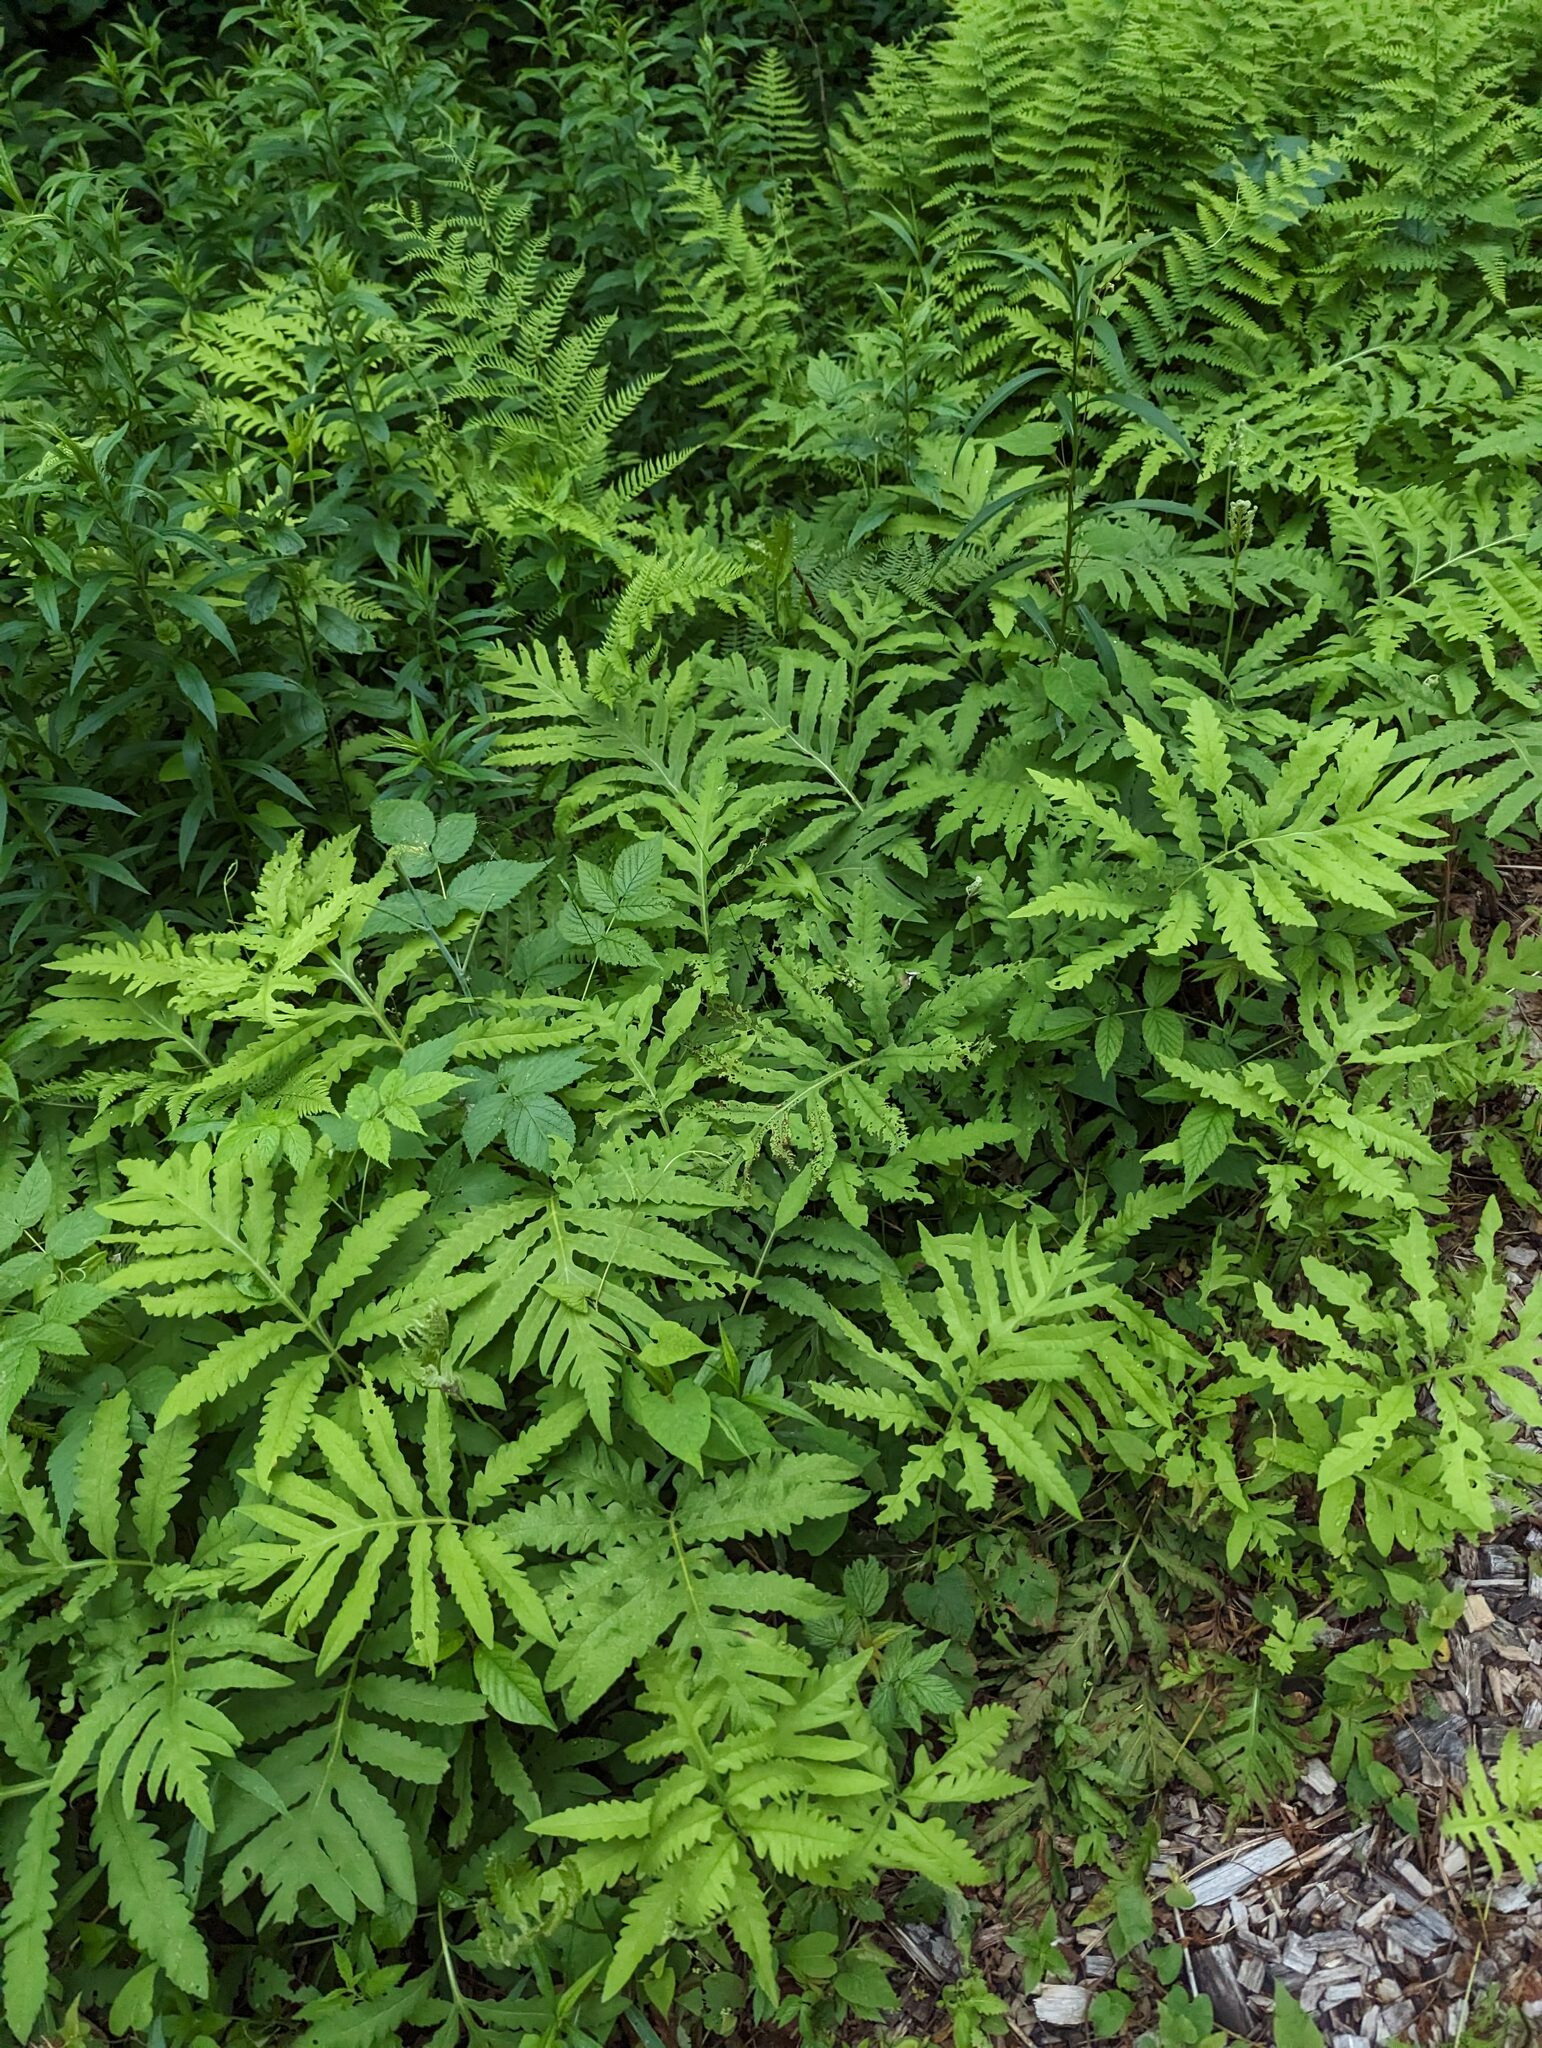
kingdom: Plantae
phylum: Tracheophyta
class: Polypodiopsida
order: Polypodiales
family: Onocleaceae
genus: Onoclea
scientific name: Onoclea sensibilis
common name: Sensitive fern
